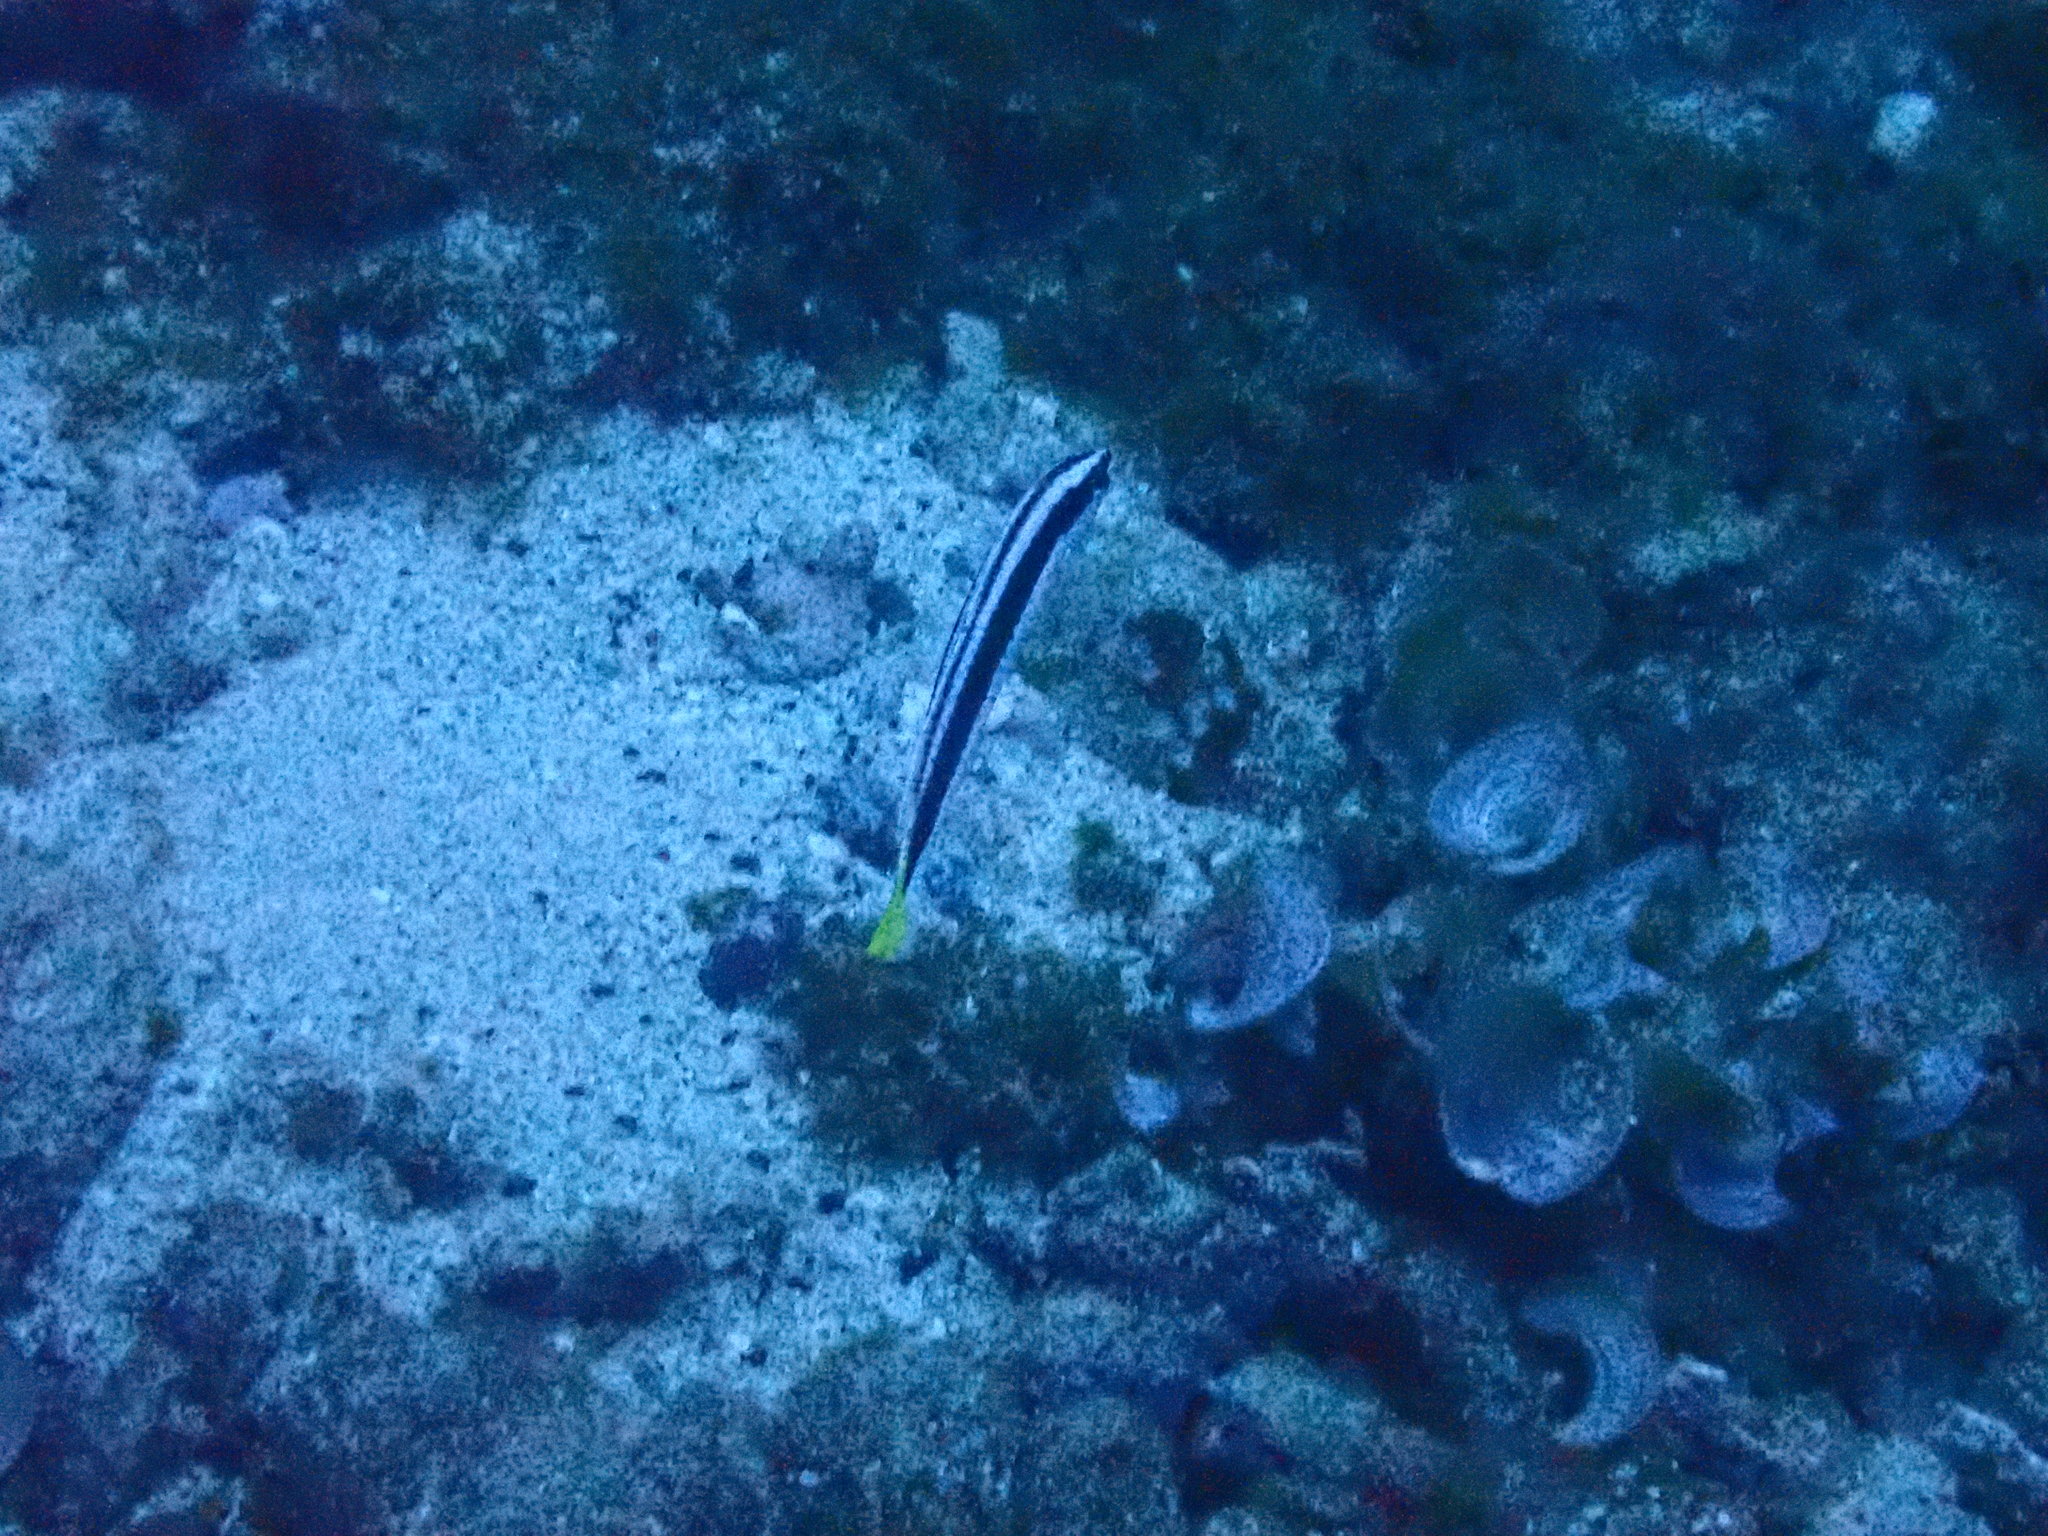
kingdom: Animalia
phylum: Chordata
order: Perciformes
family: Labridae
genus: Coris
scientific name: Coris picta
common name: Combfish
